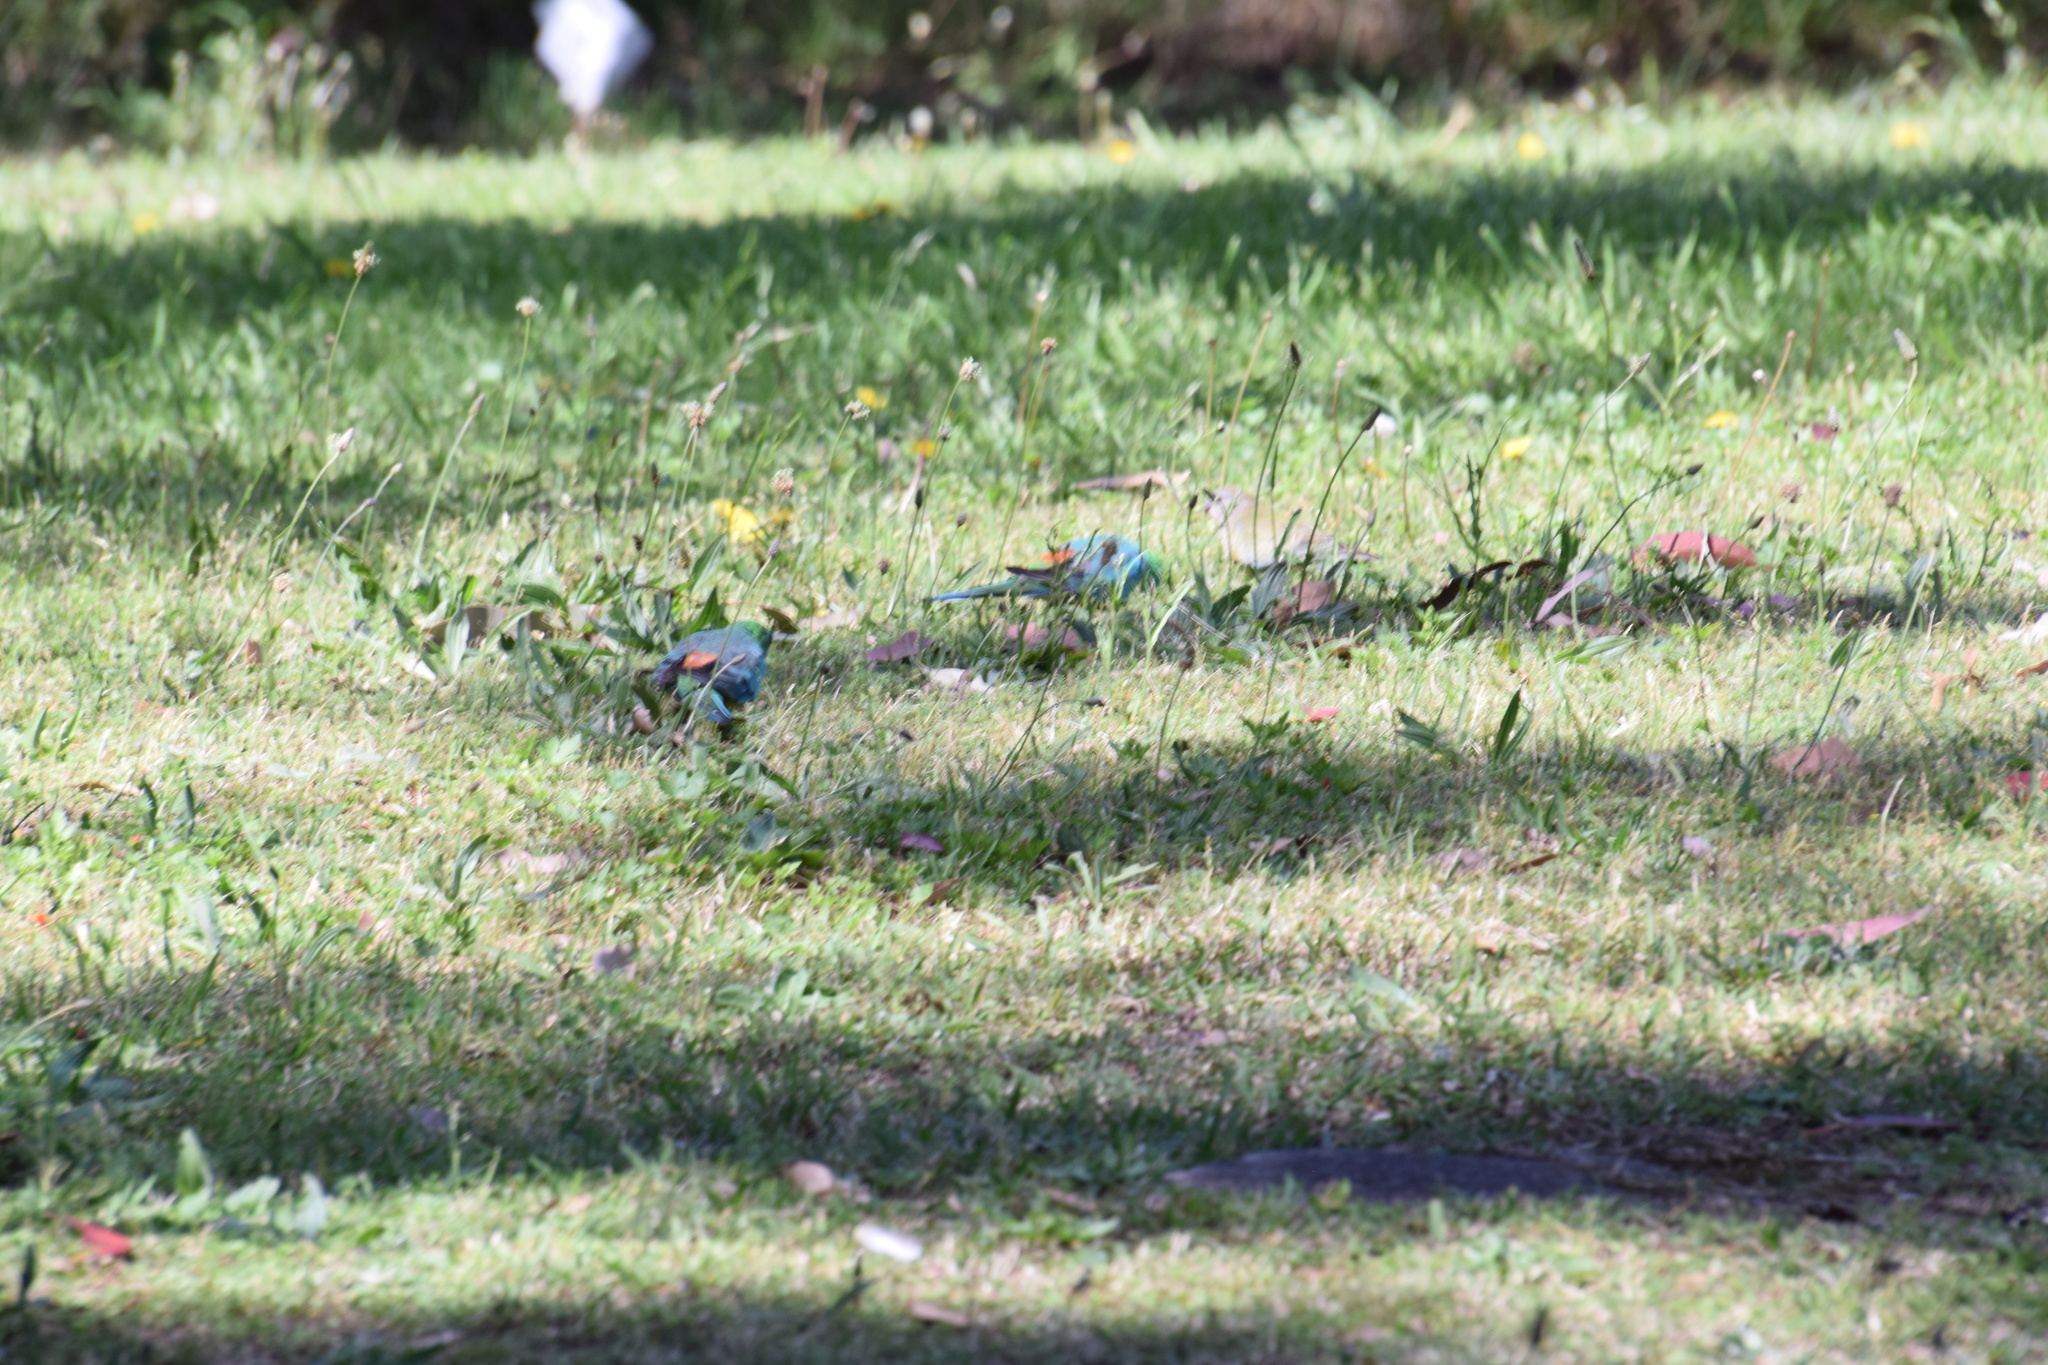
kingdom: Animalia
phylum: Chordata
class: Aves
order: Psittaciformes
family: Psittacidae
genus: Psephotus
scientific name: Psephotus haematonotus
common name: Red-rumped parrot
